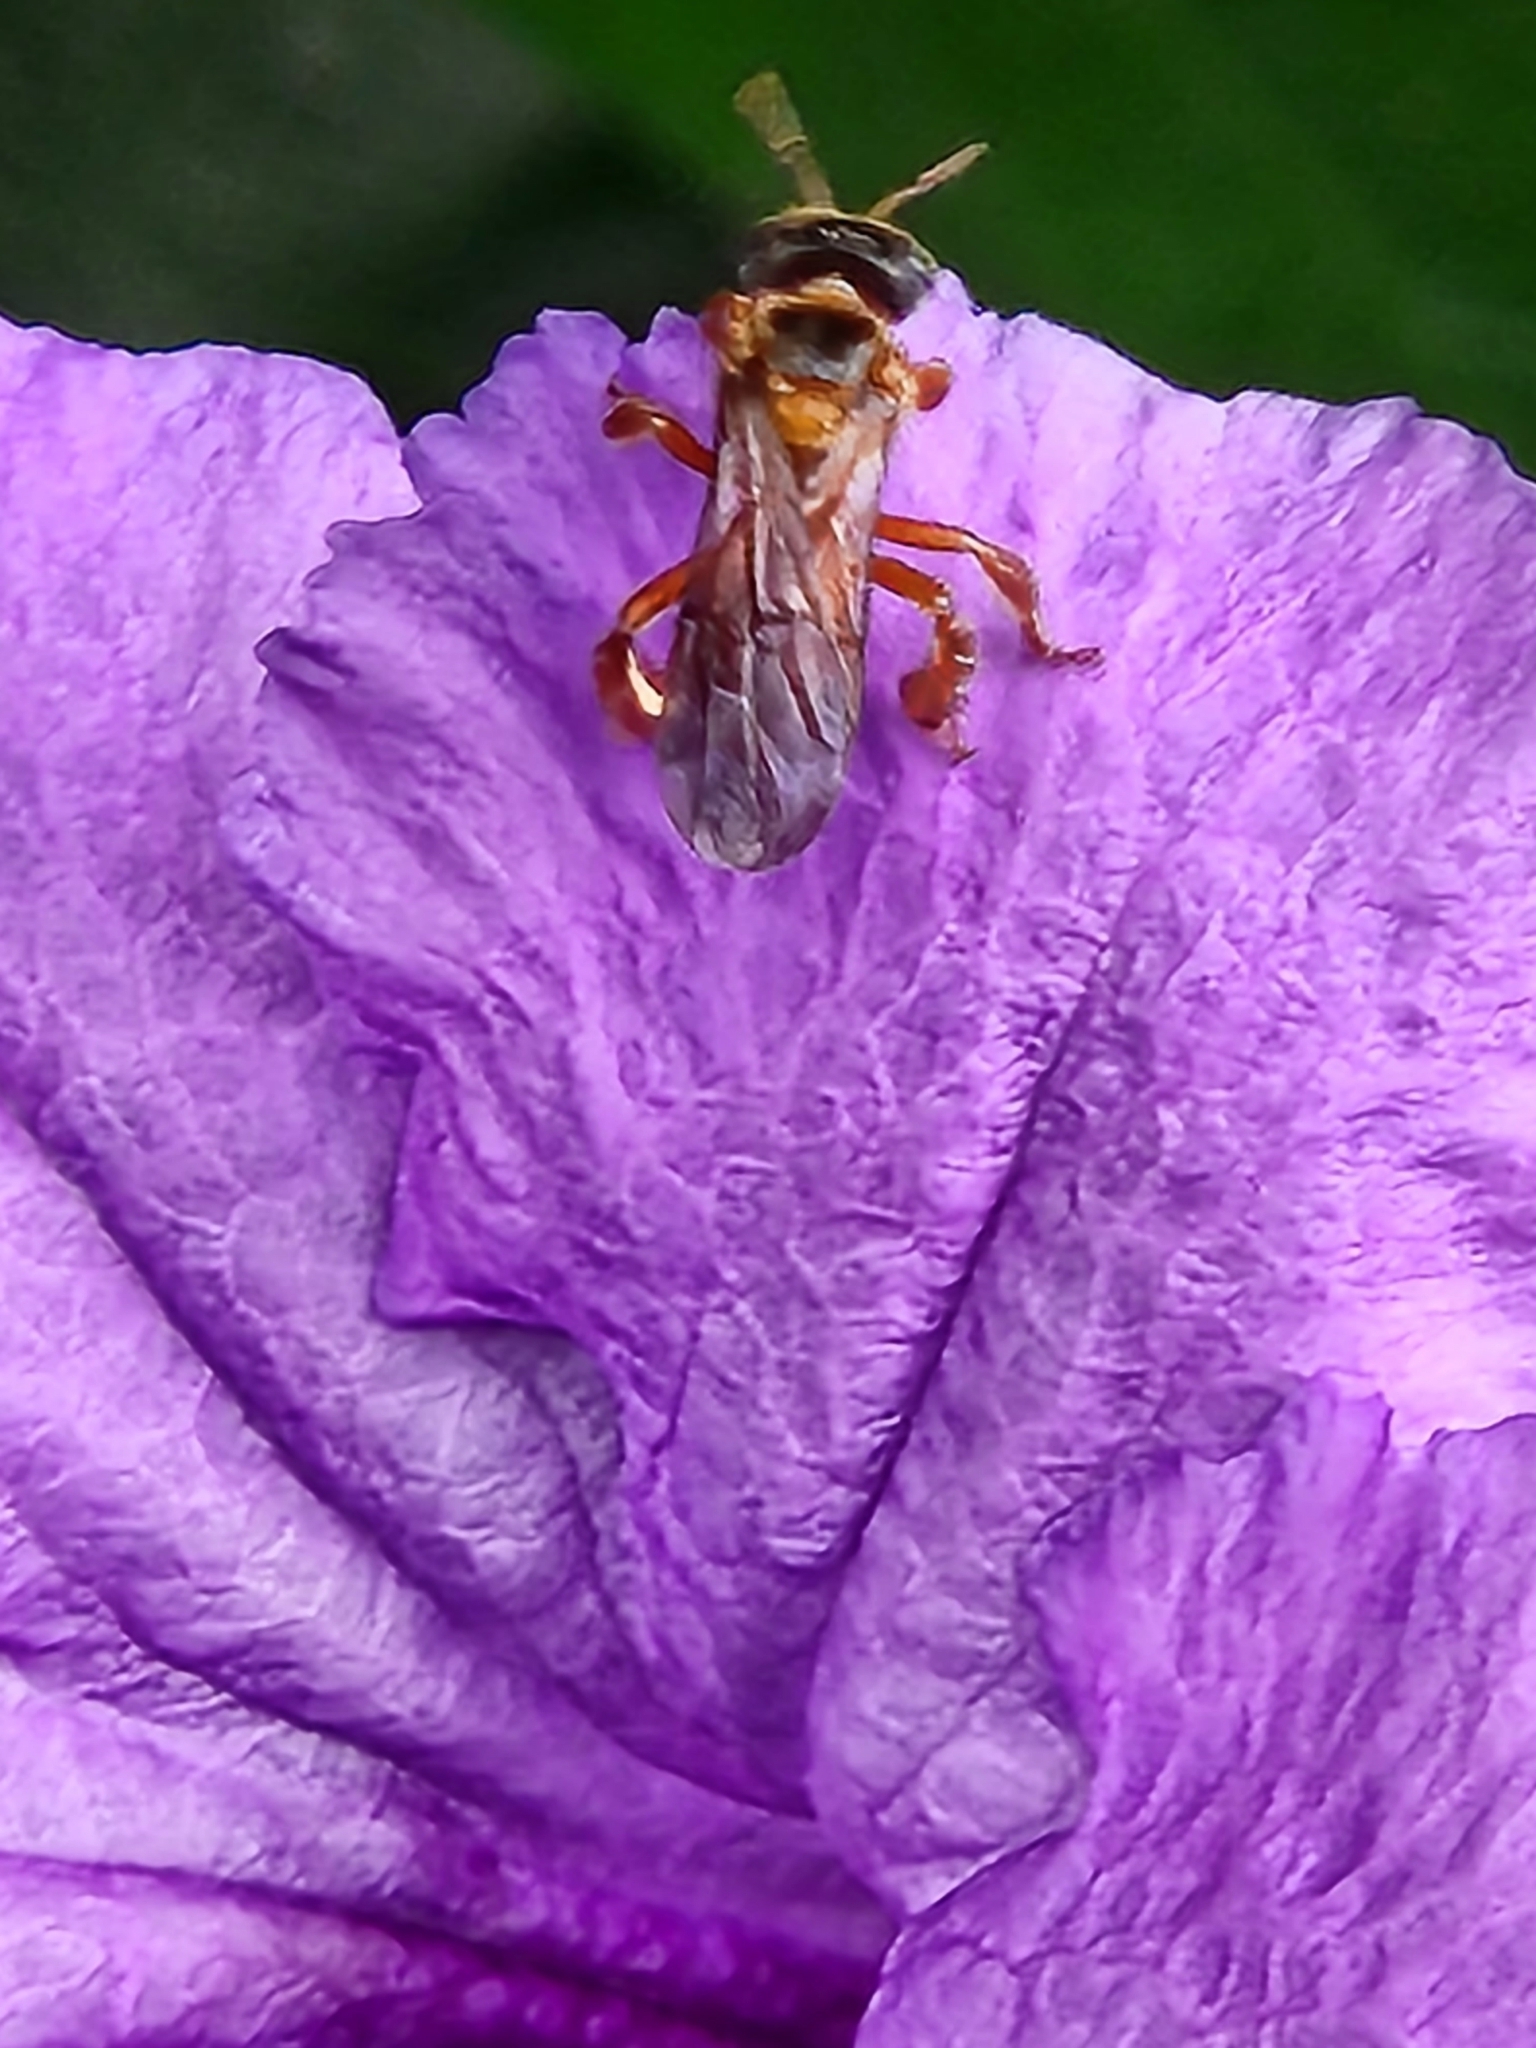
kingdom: Animalia
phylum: Arthropoda
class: Insecta
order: Hymenoptera
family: Apidae
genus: Trigona
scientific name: Trigona ferricauda
